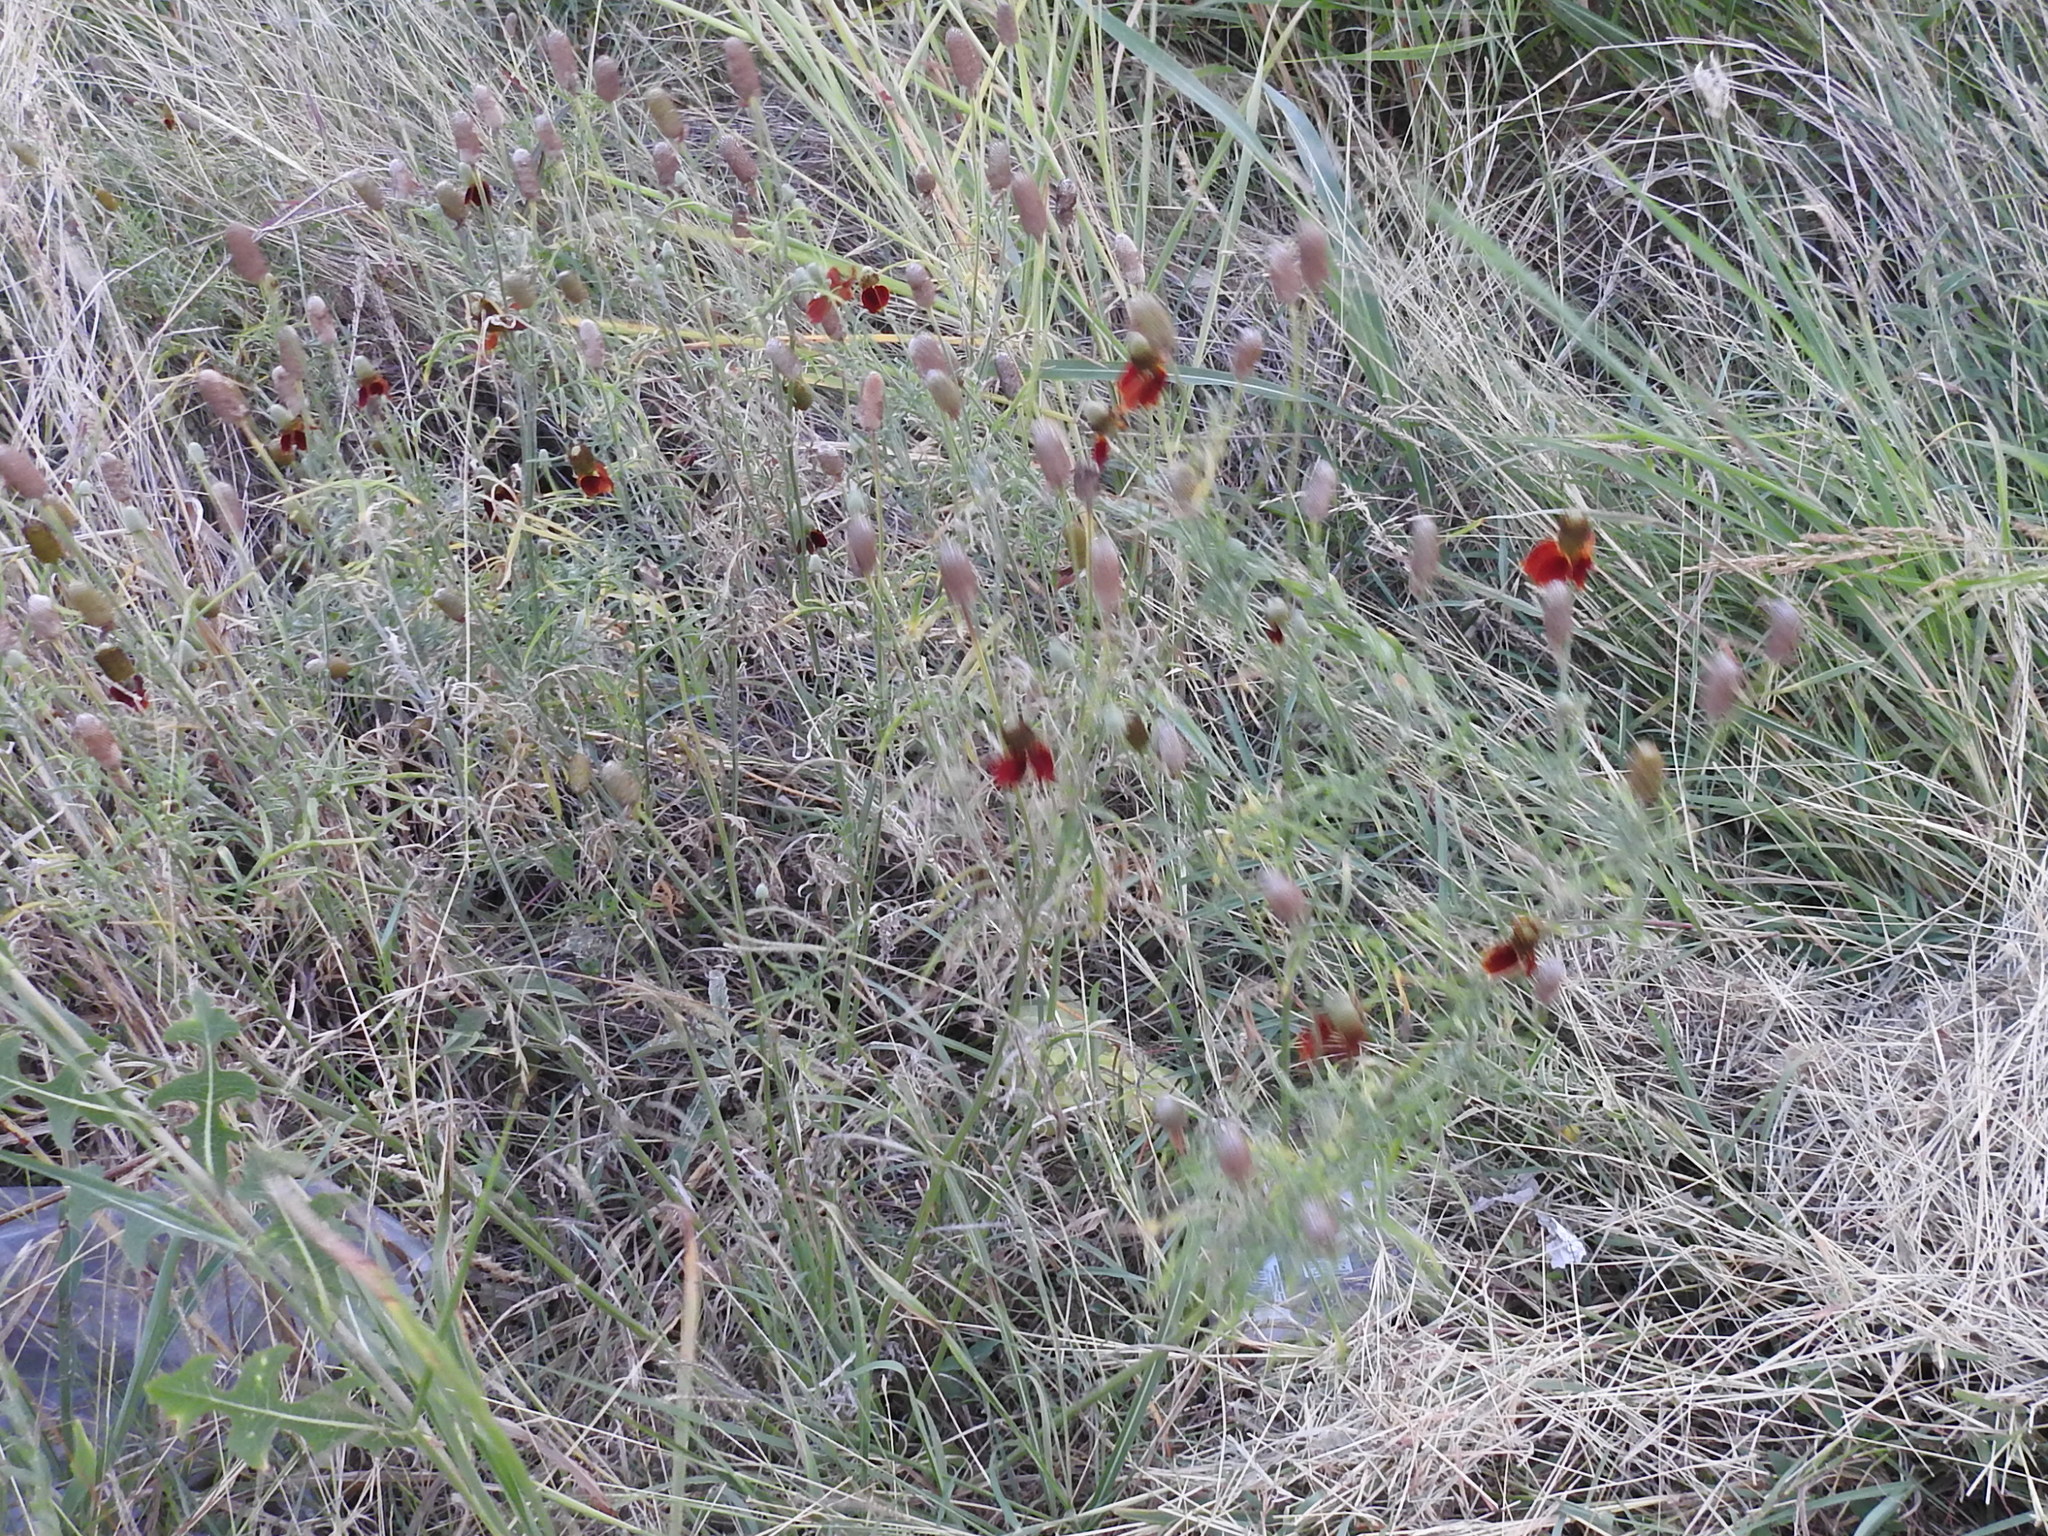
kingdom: Plantae
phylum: Tracheophyta
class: Magnoliopsida
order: Asterales
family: Asteraceae
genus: Ratibida
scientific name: Ratibida columnifera
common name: Prairie coneflower
